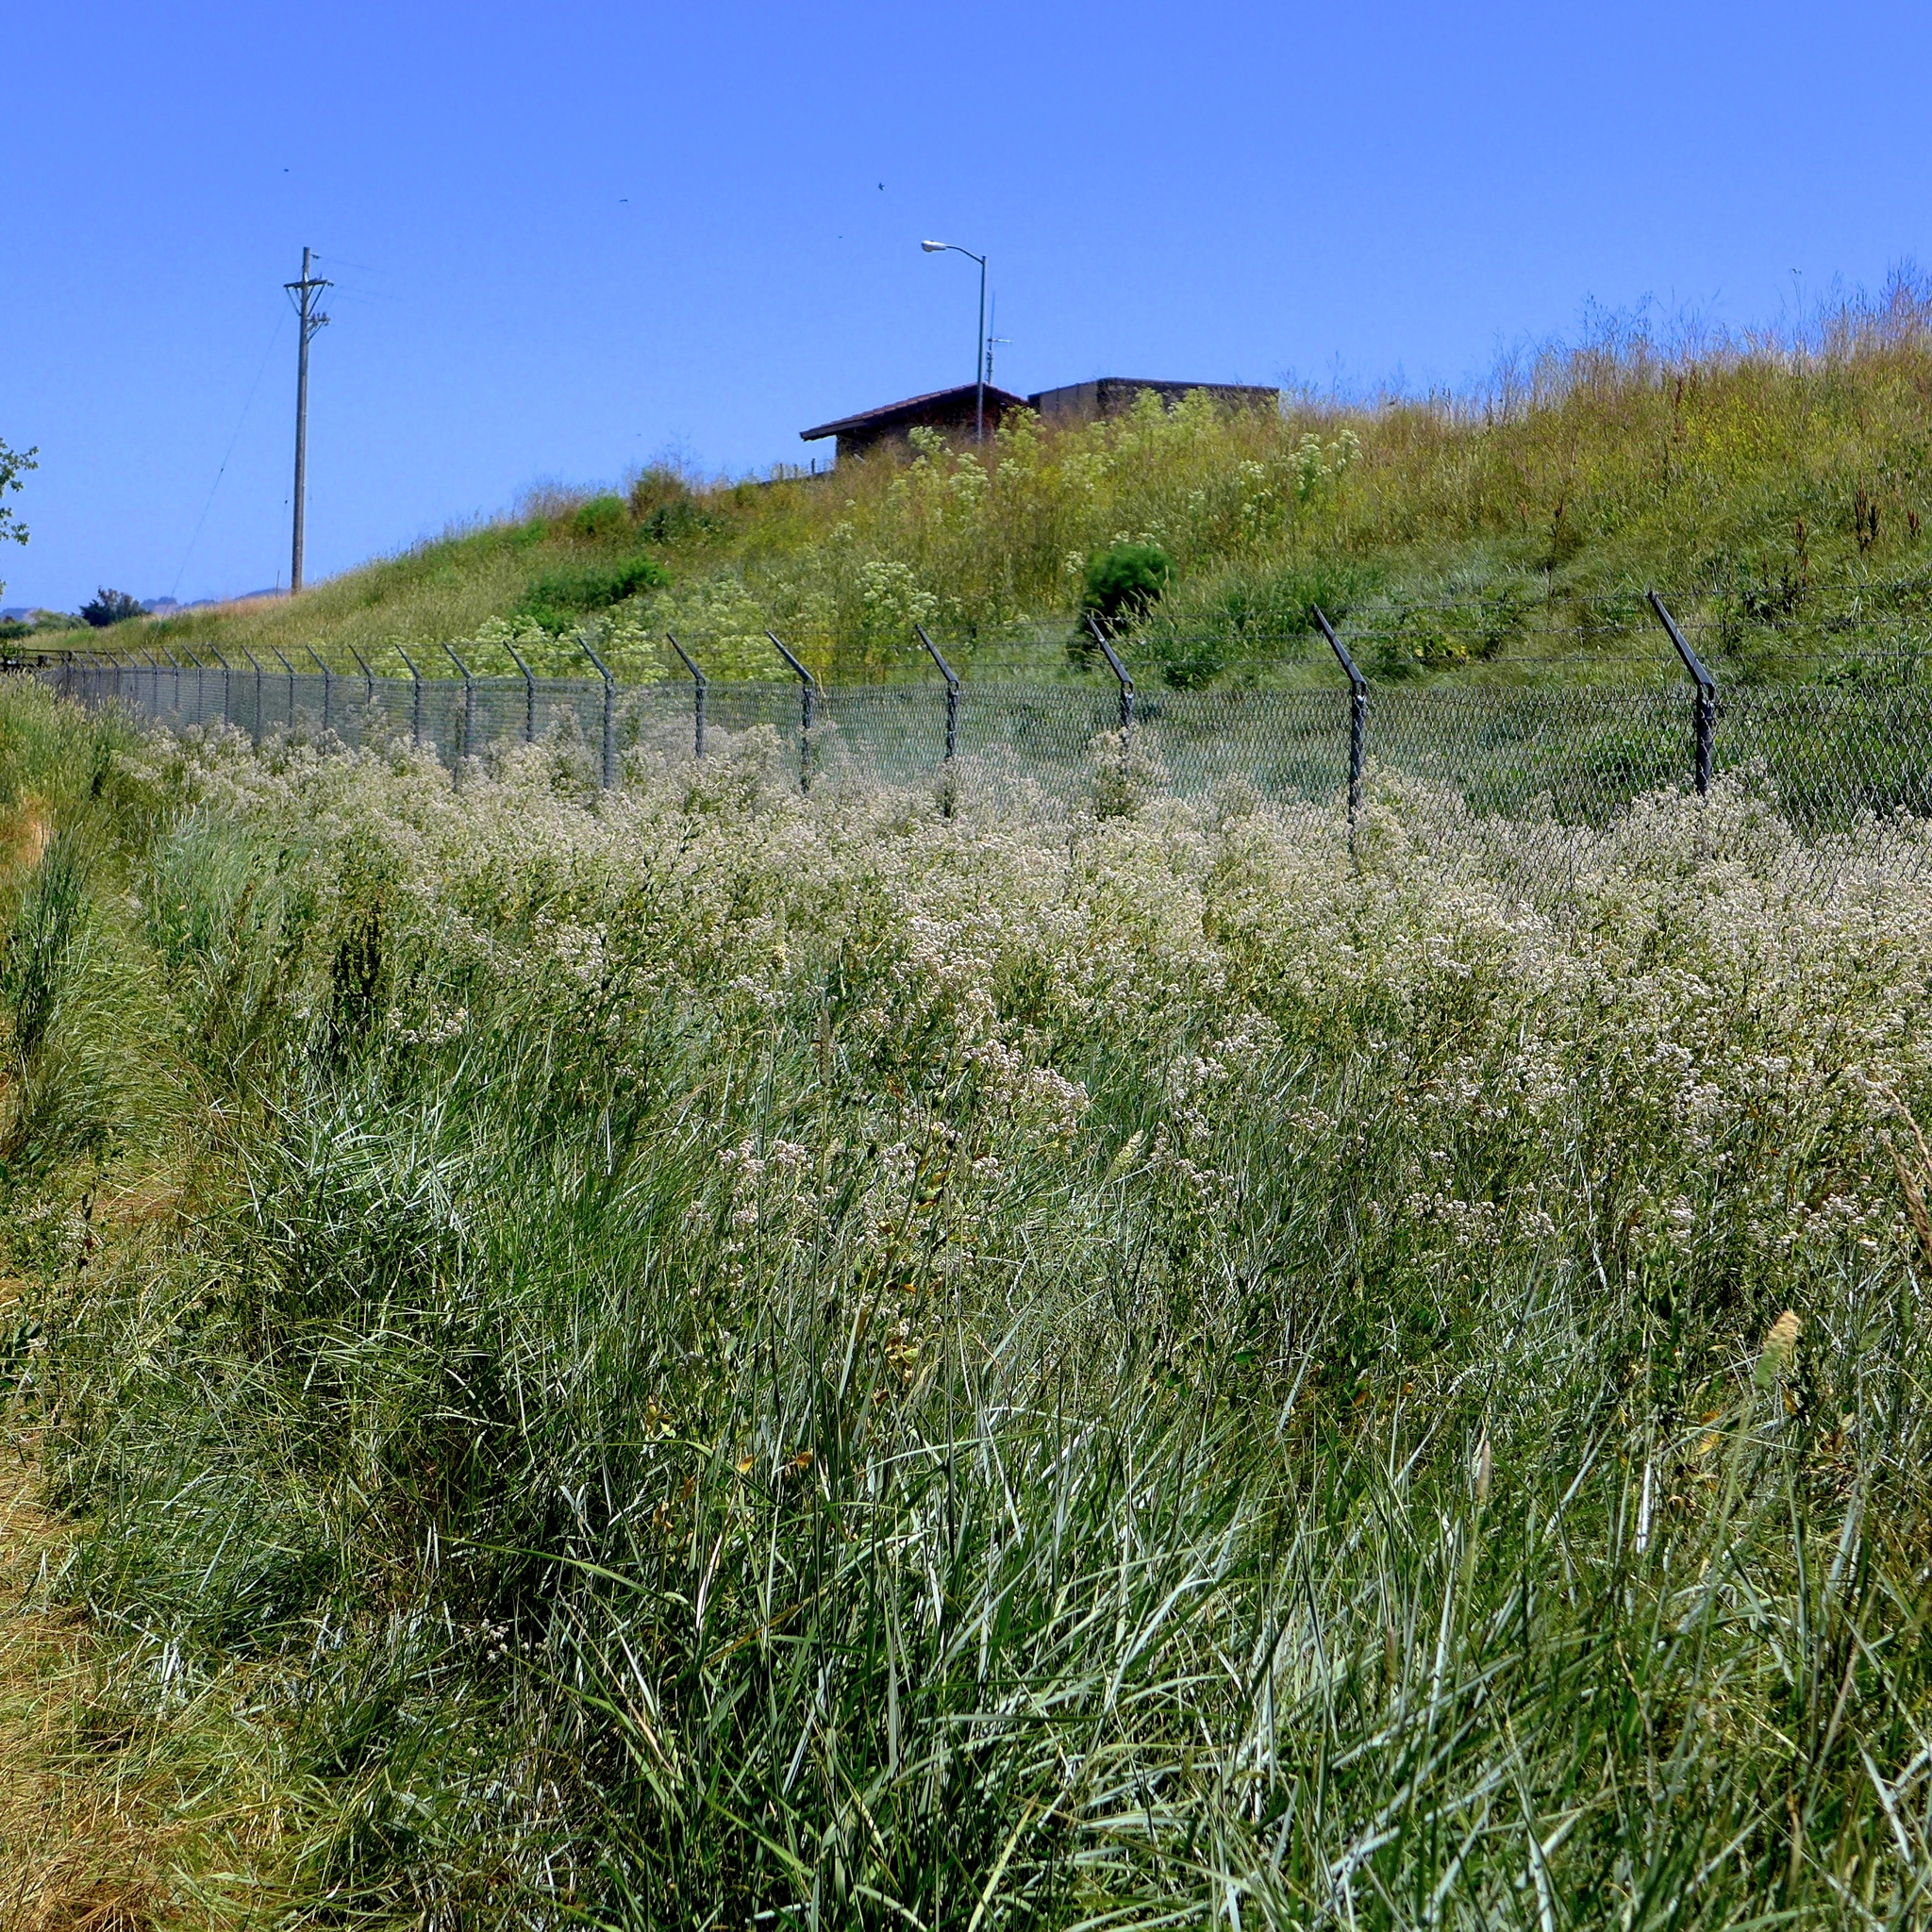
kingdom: Plantae
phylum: Tracheophyta
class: Magnoliopsida
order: Brassicales
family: Brassicaceae
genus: Lepidium
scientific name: Lepidium latifolium
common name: Dittander
